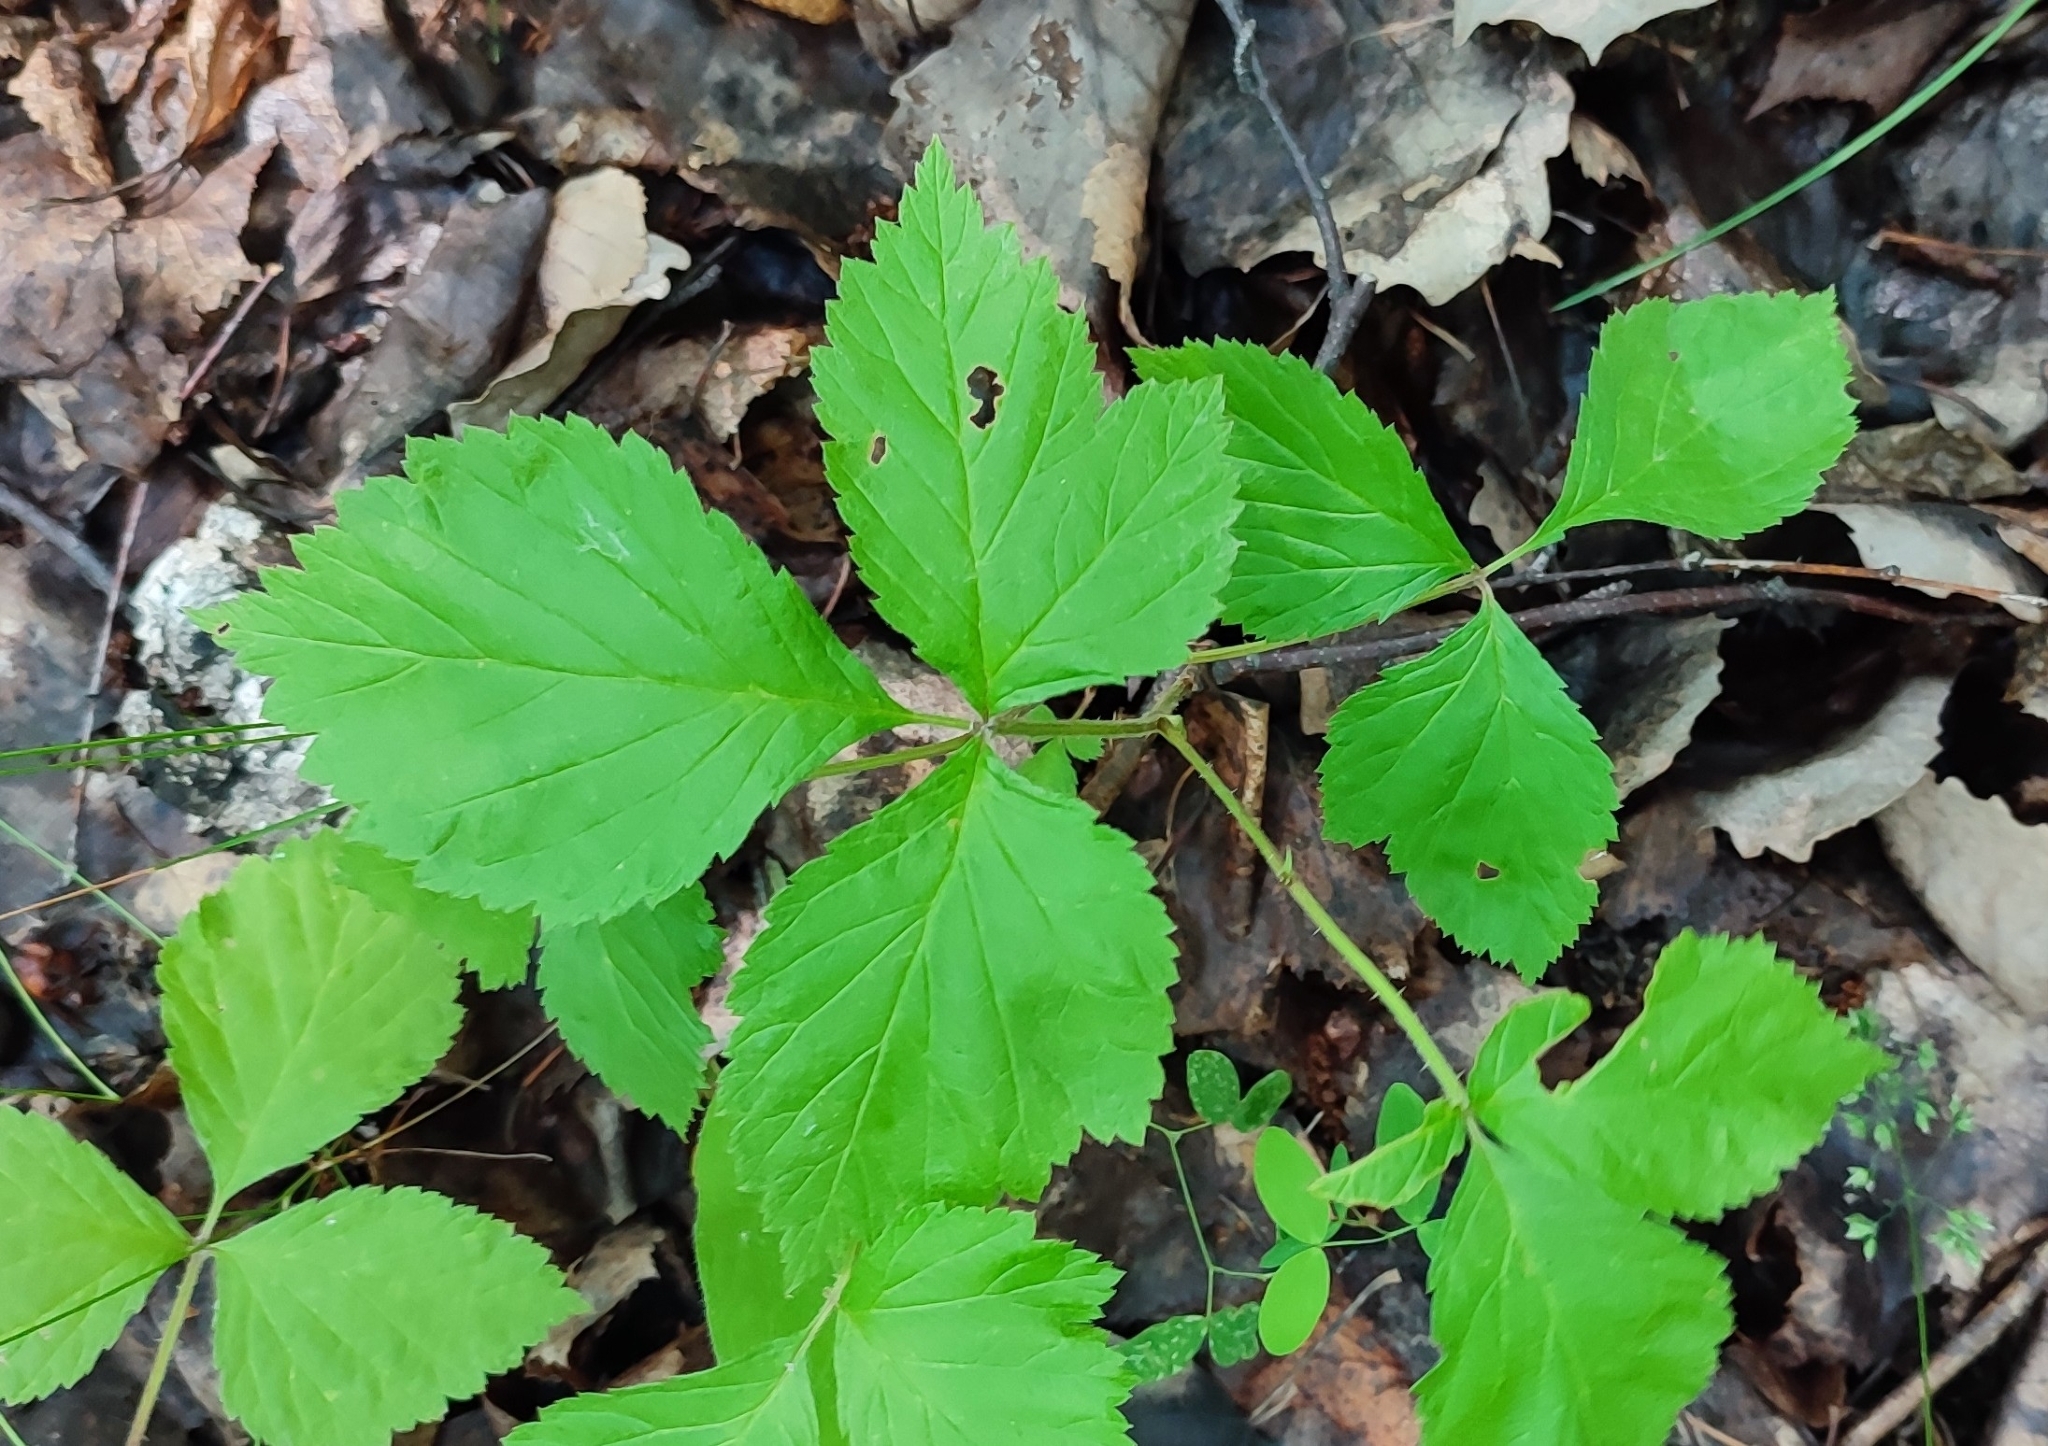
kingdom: Plantae
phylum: Tracheophyta
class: Magnoliopsida
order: Rosales
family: Rosaceae
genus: Rubus
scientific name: Rubus saxatilis
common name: Stone bramble
